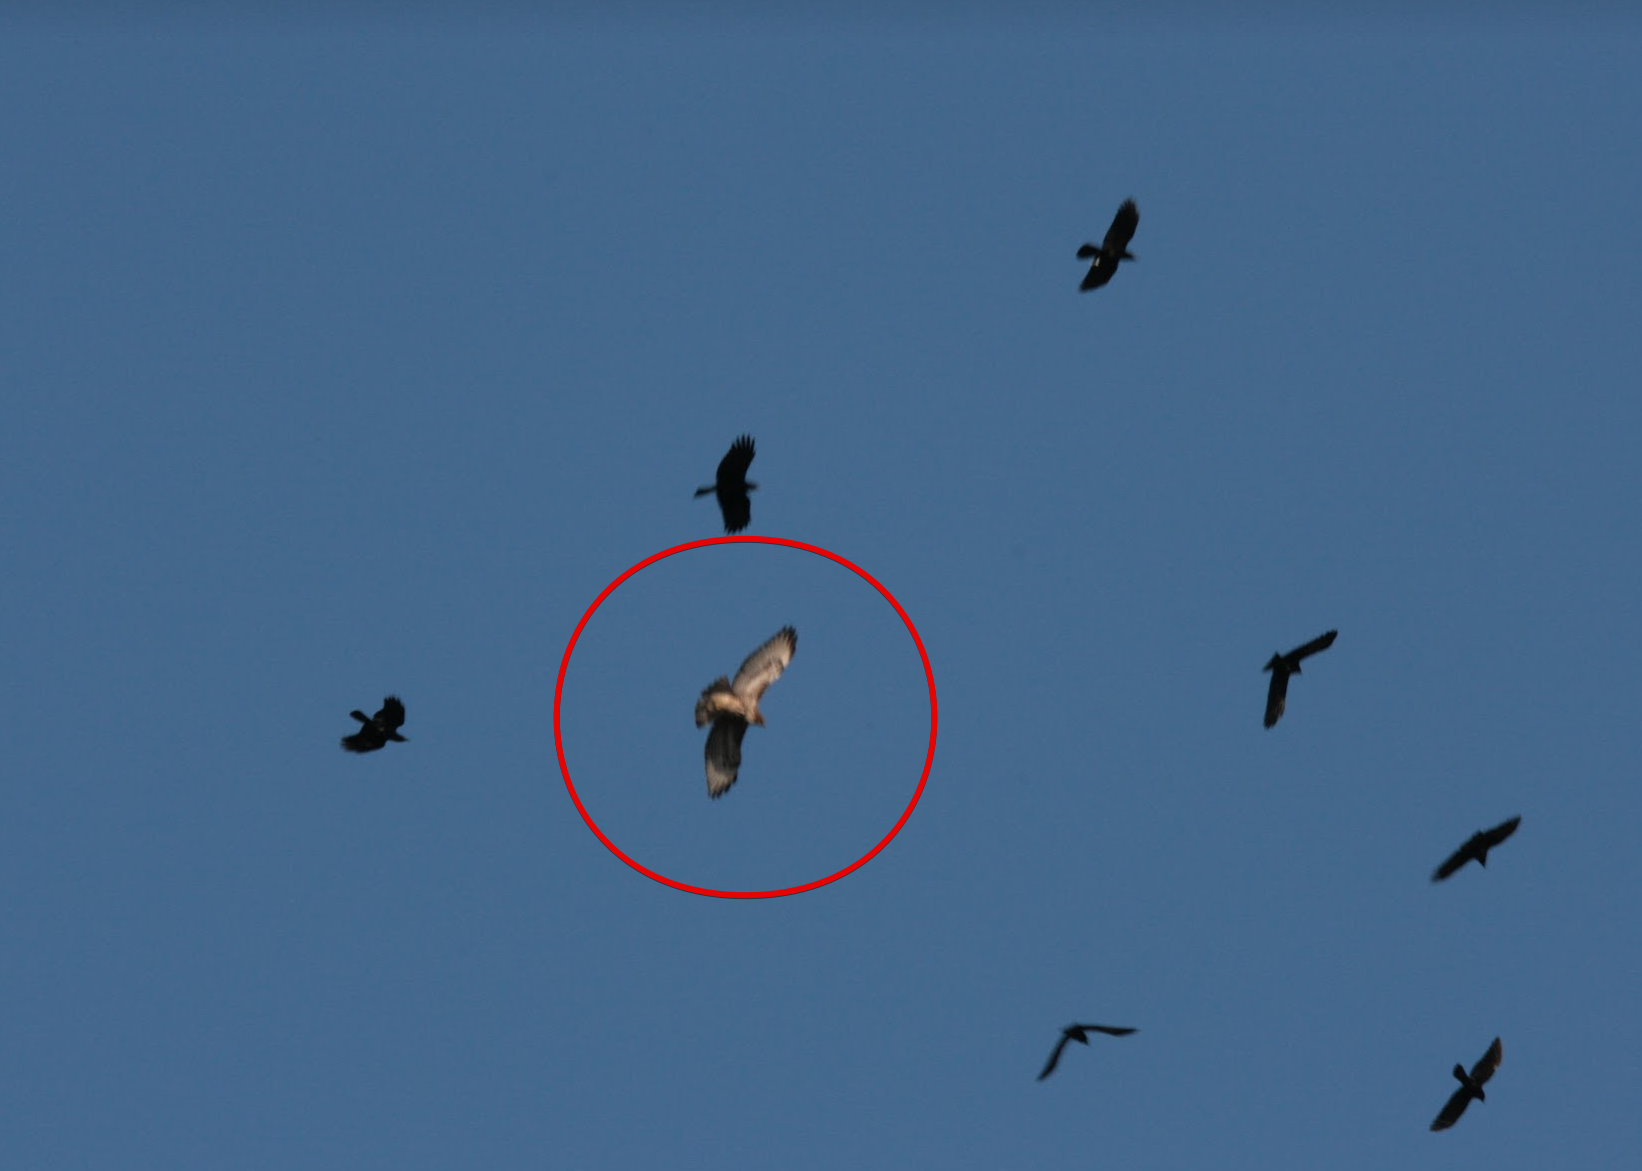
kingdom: Animalia
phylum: Chordata
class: Aves
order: Accipitriformes
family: Accipitridae
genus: Buteo
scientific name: Buteo jamaicensis
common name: Red-tailed hawk
